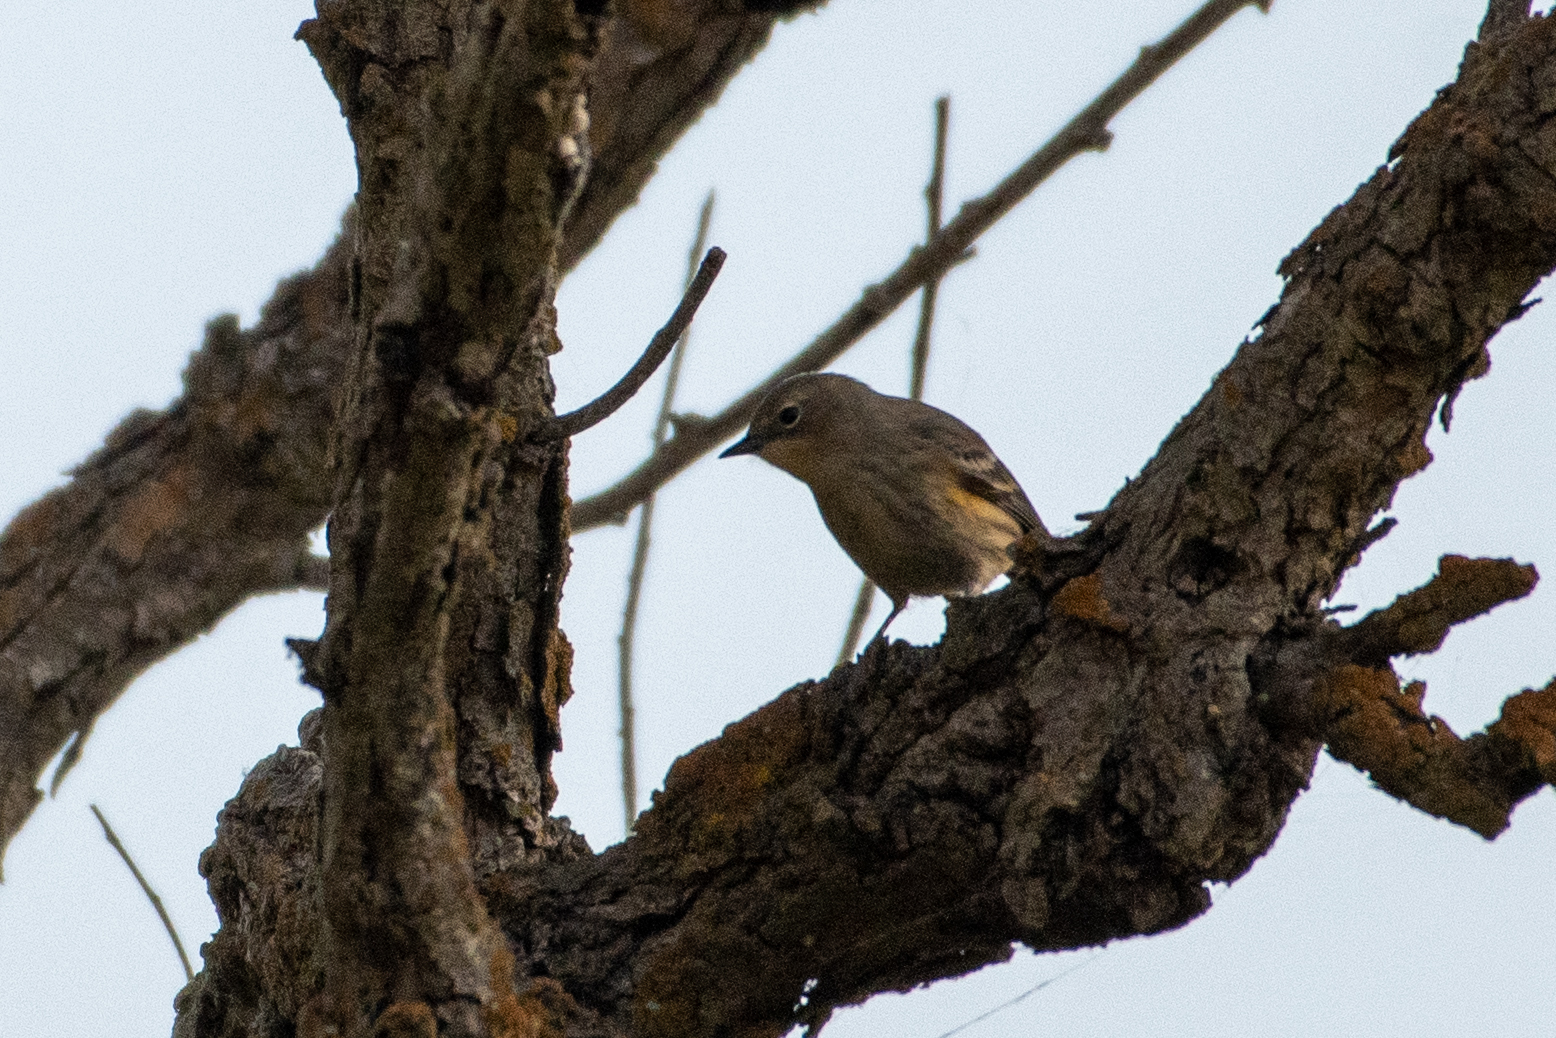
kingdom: Animalia
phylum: Chordata
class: Aves
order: Passeriformes
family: Parulidae
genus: Setophaga
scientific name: Setophaga coronata
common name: Myrtle warbler
